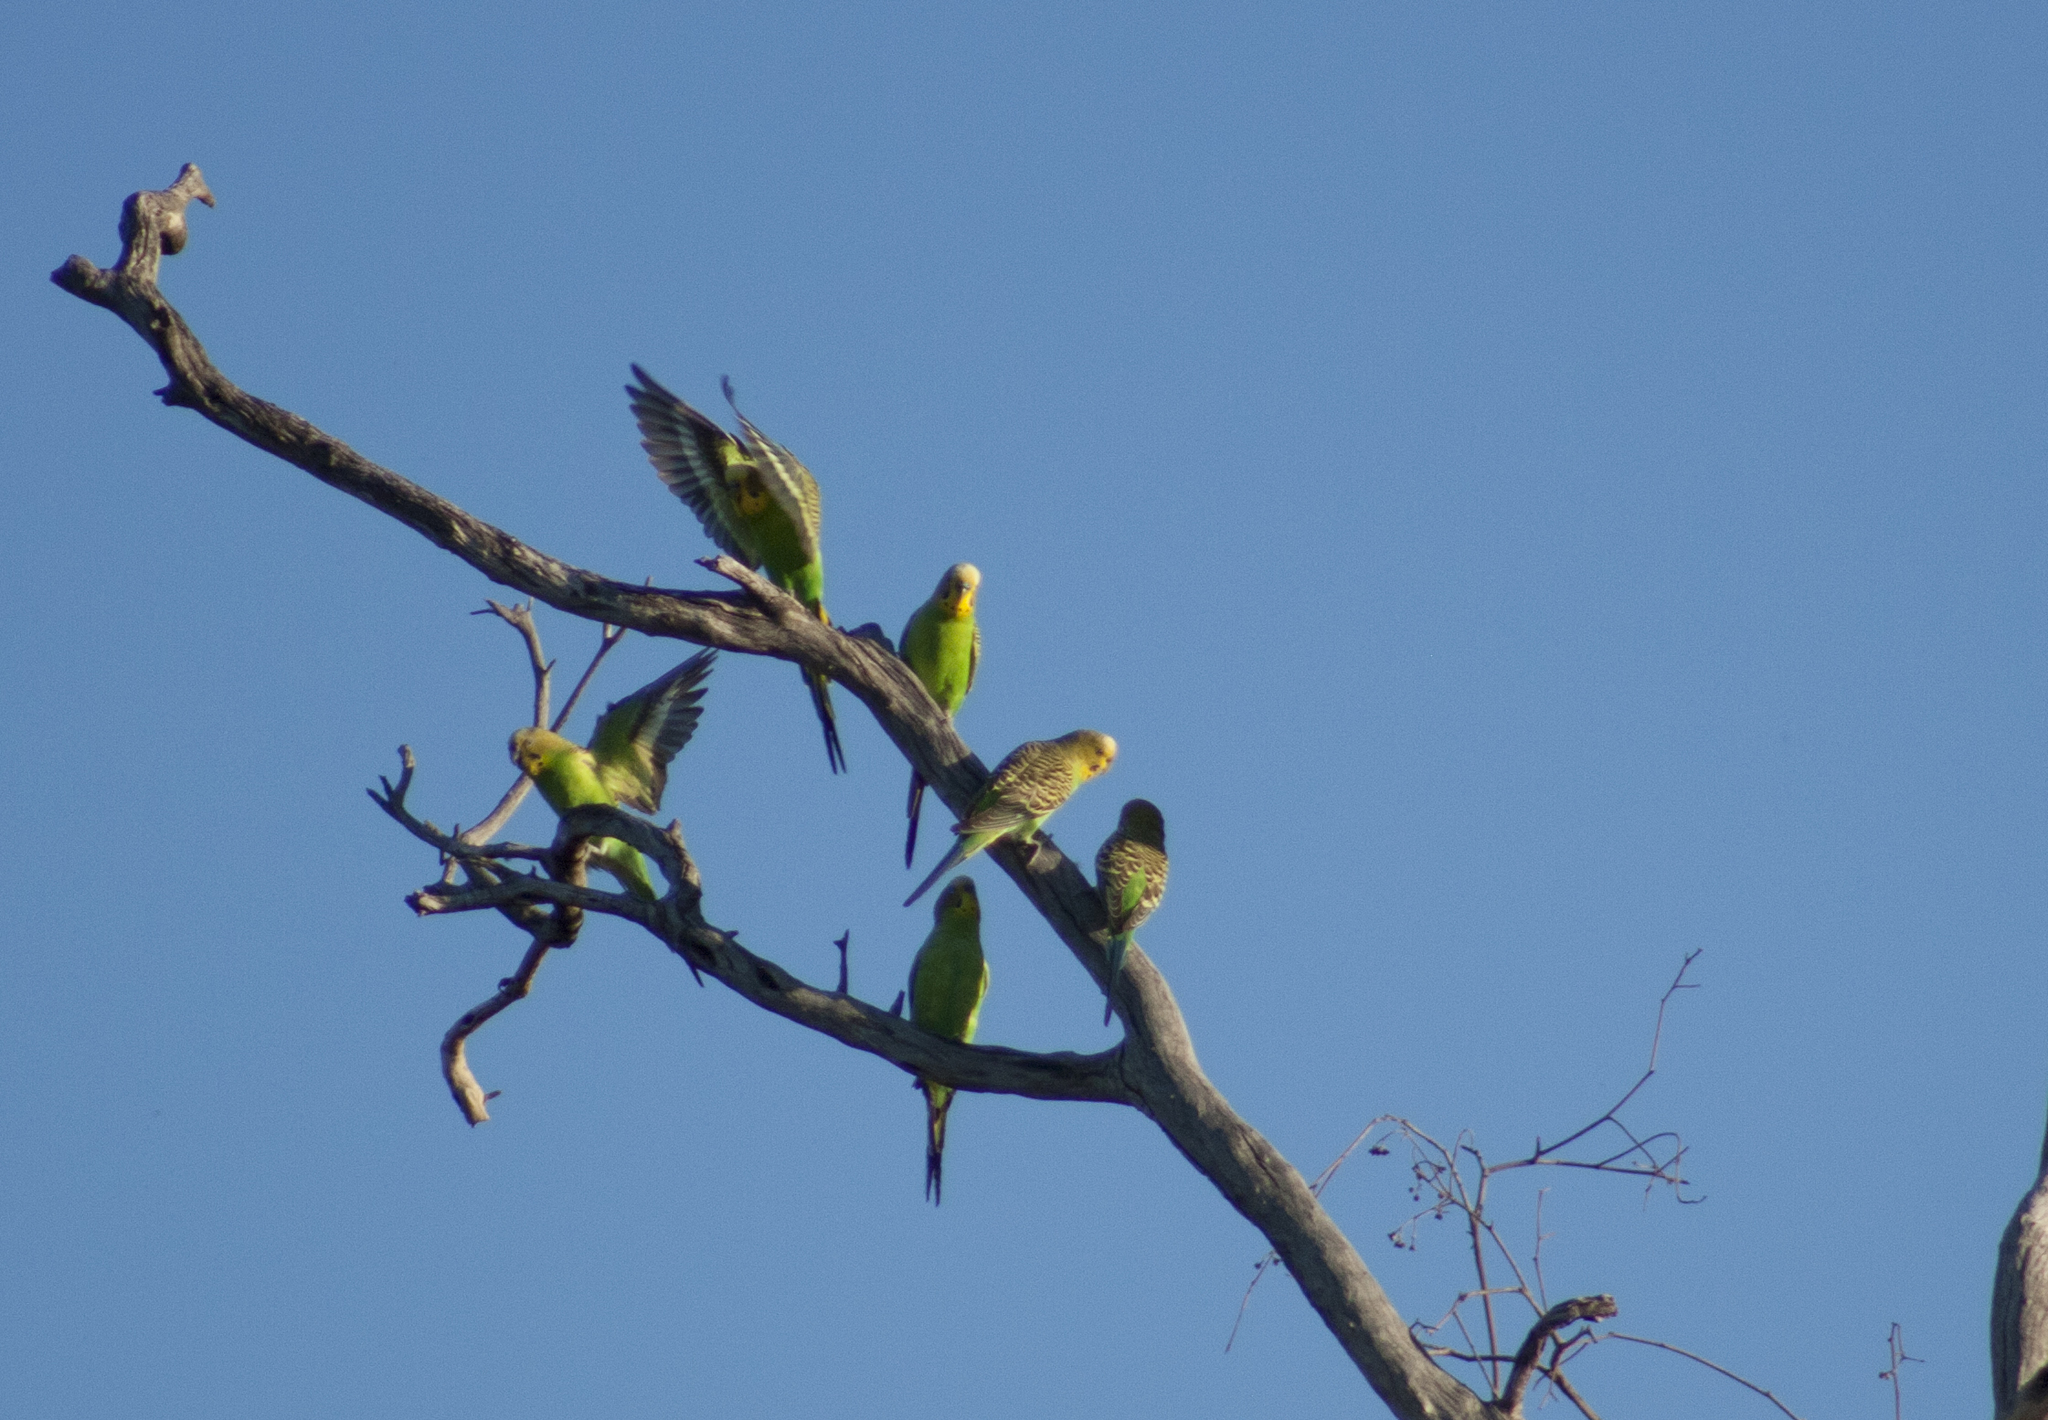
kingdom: Animalia
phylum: Chordata
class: Aves
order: Psittaciformes
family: Psittacidae
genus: Melopsittacus
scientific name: Melopsittacus undulatus
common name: Budgerigar
